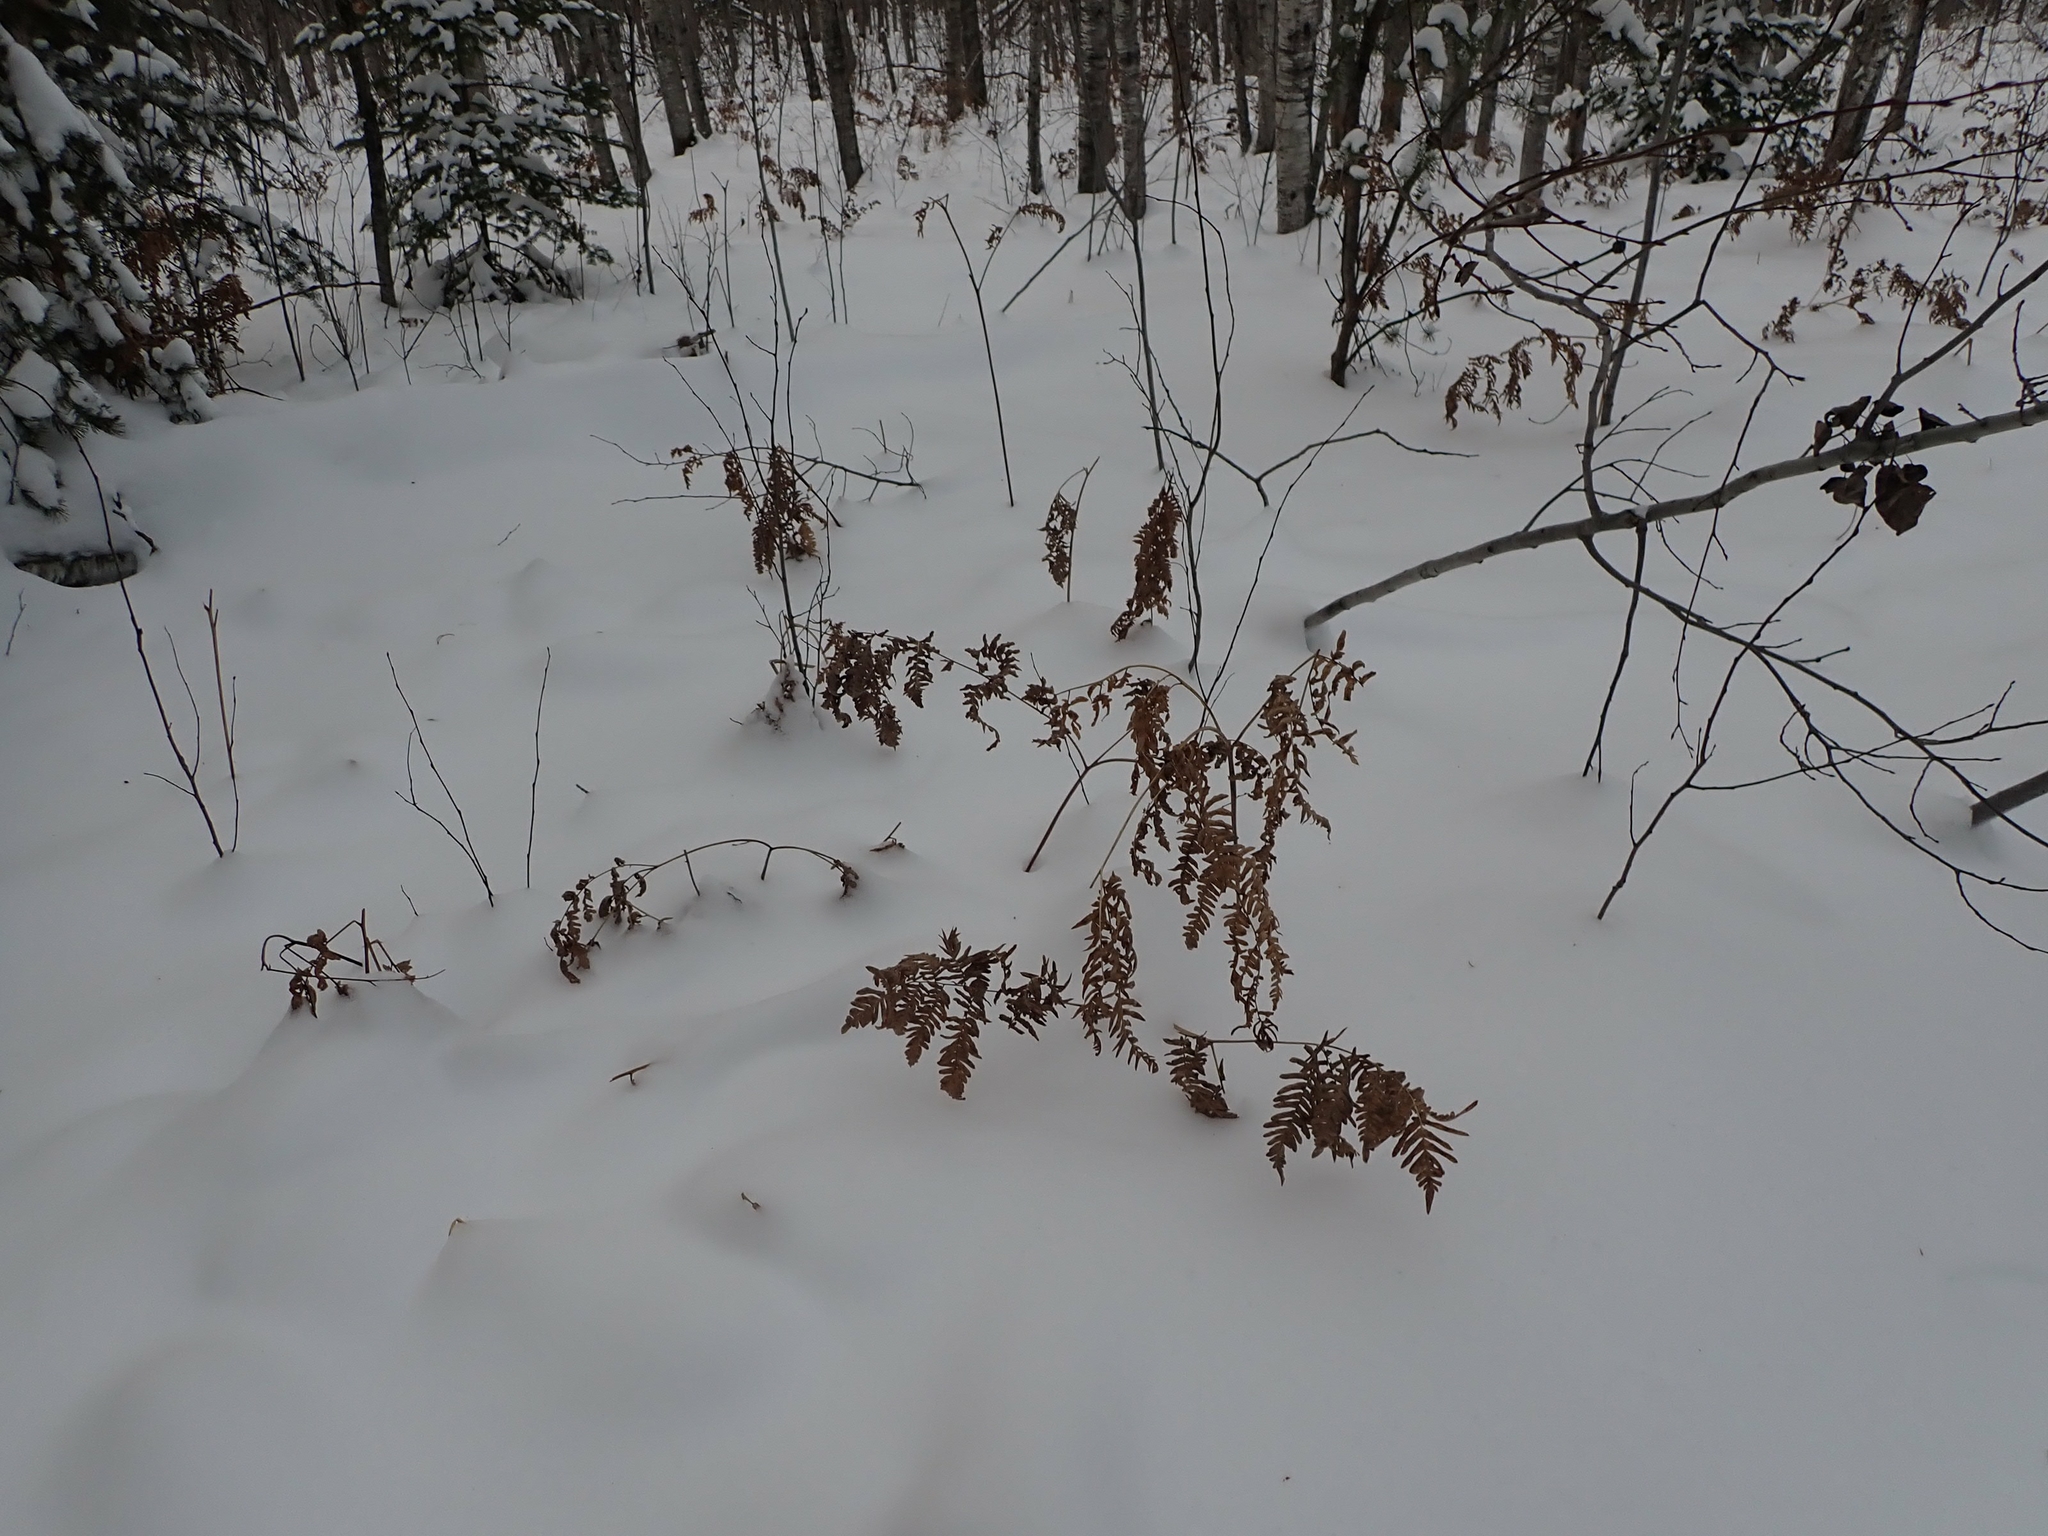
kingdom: Plantae
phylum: Tracheophyta
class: Polypodiopsida
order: Polypodiales
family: Dennstaedtiaceae
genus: Pteridium
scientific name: Pteridium aquilinum
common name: Bracken
